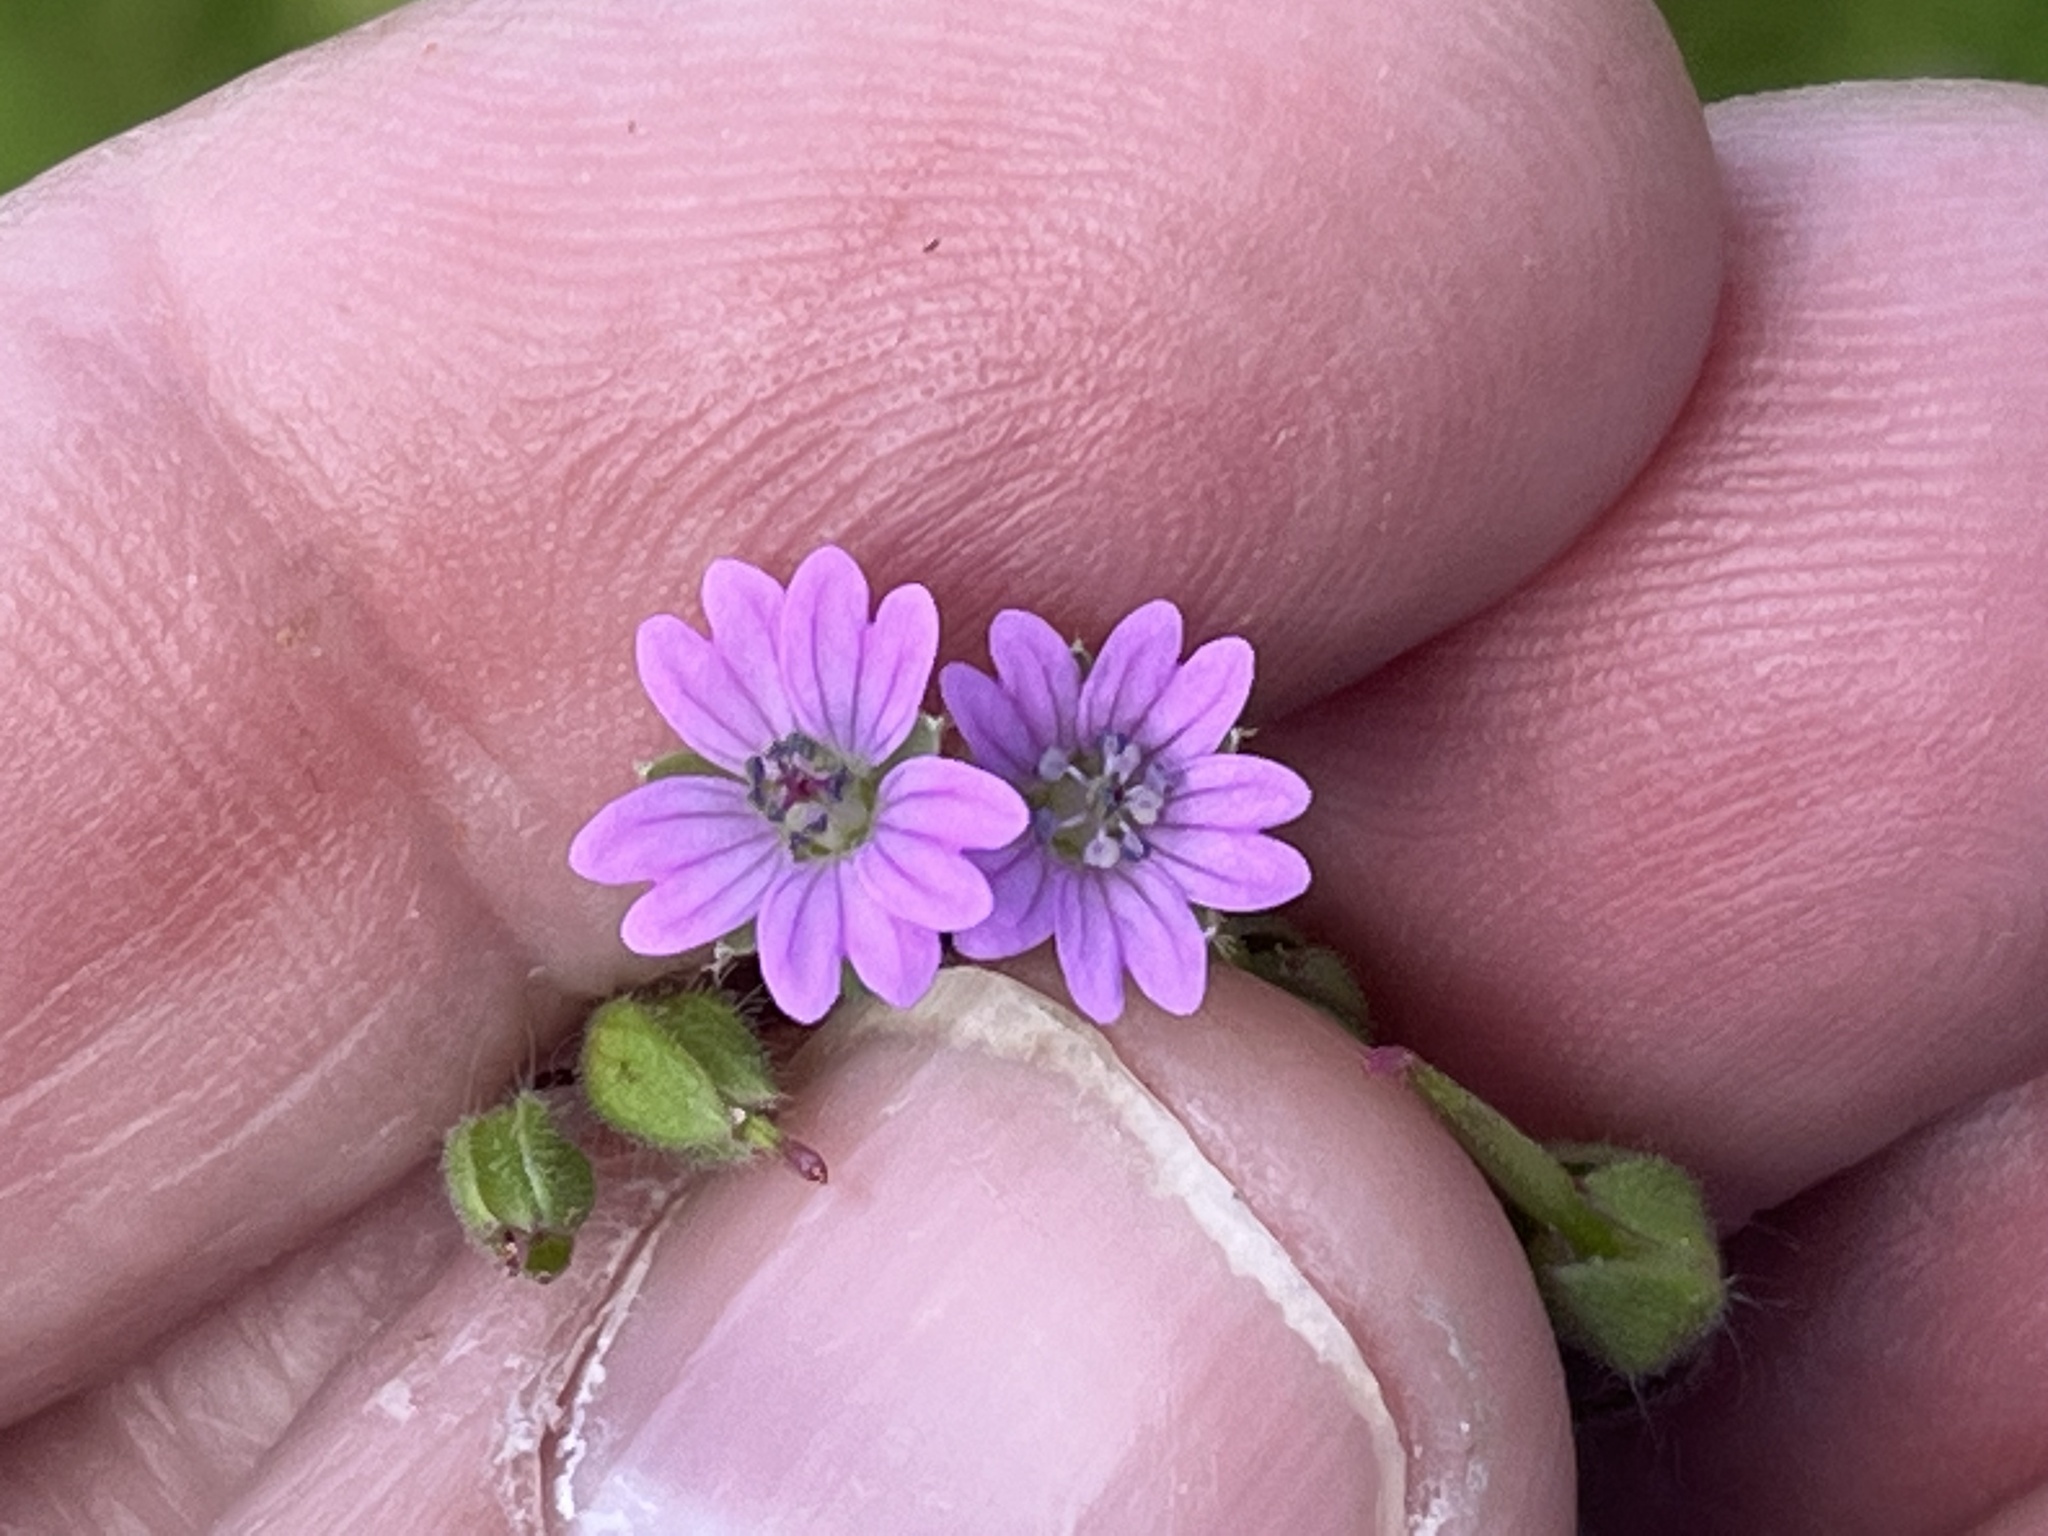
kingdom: Plantae
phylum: Tracheophyta
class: Magnoliopsida
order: Geraniales
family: Geraniaceae
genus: Geranium
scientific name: Geranium molle
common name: Dove's-foot crane's-bill
